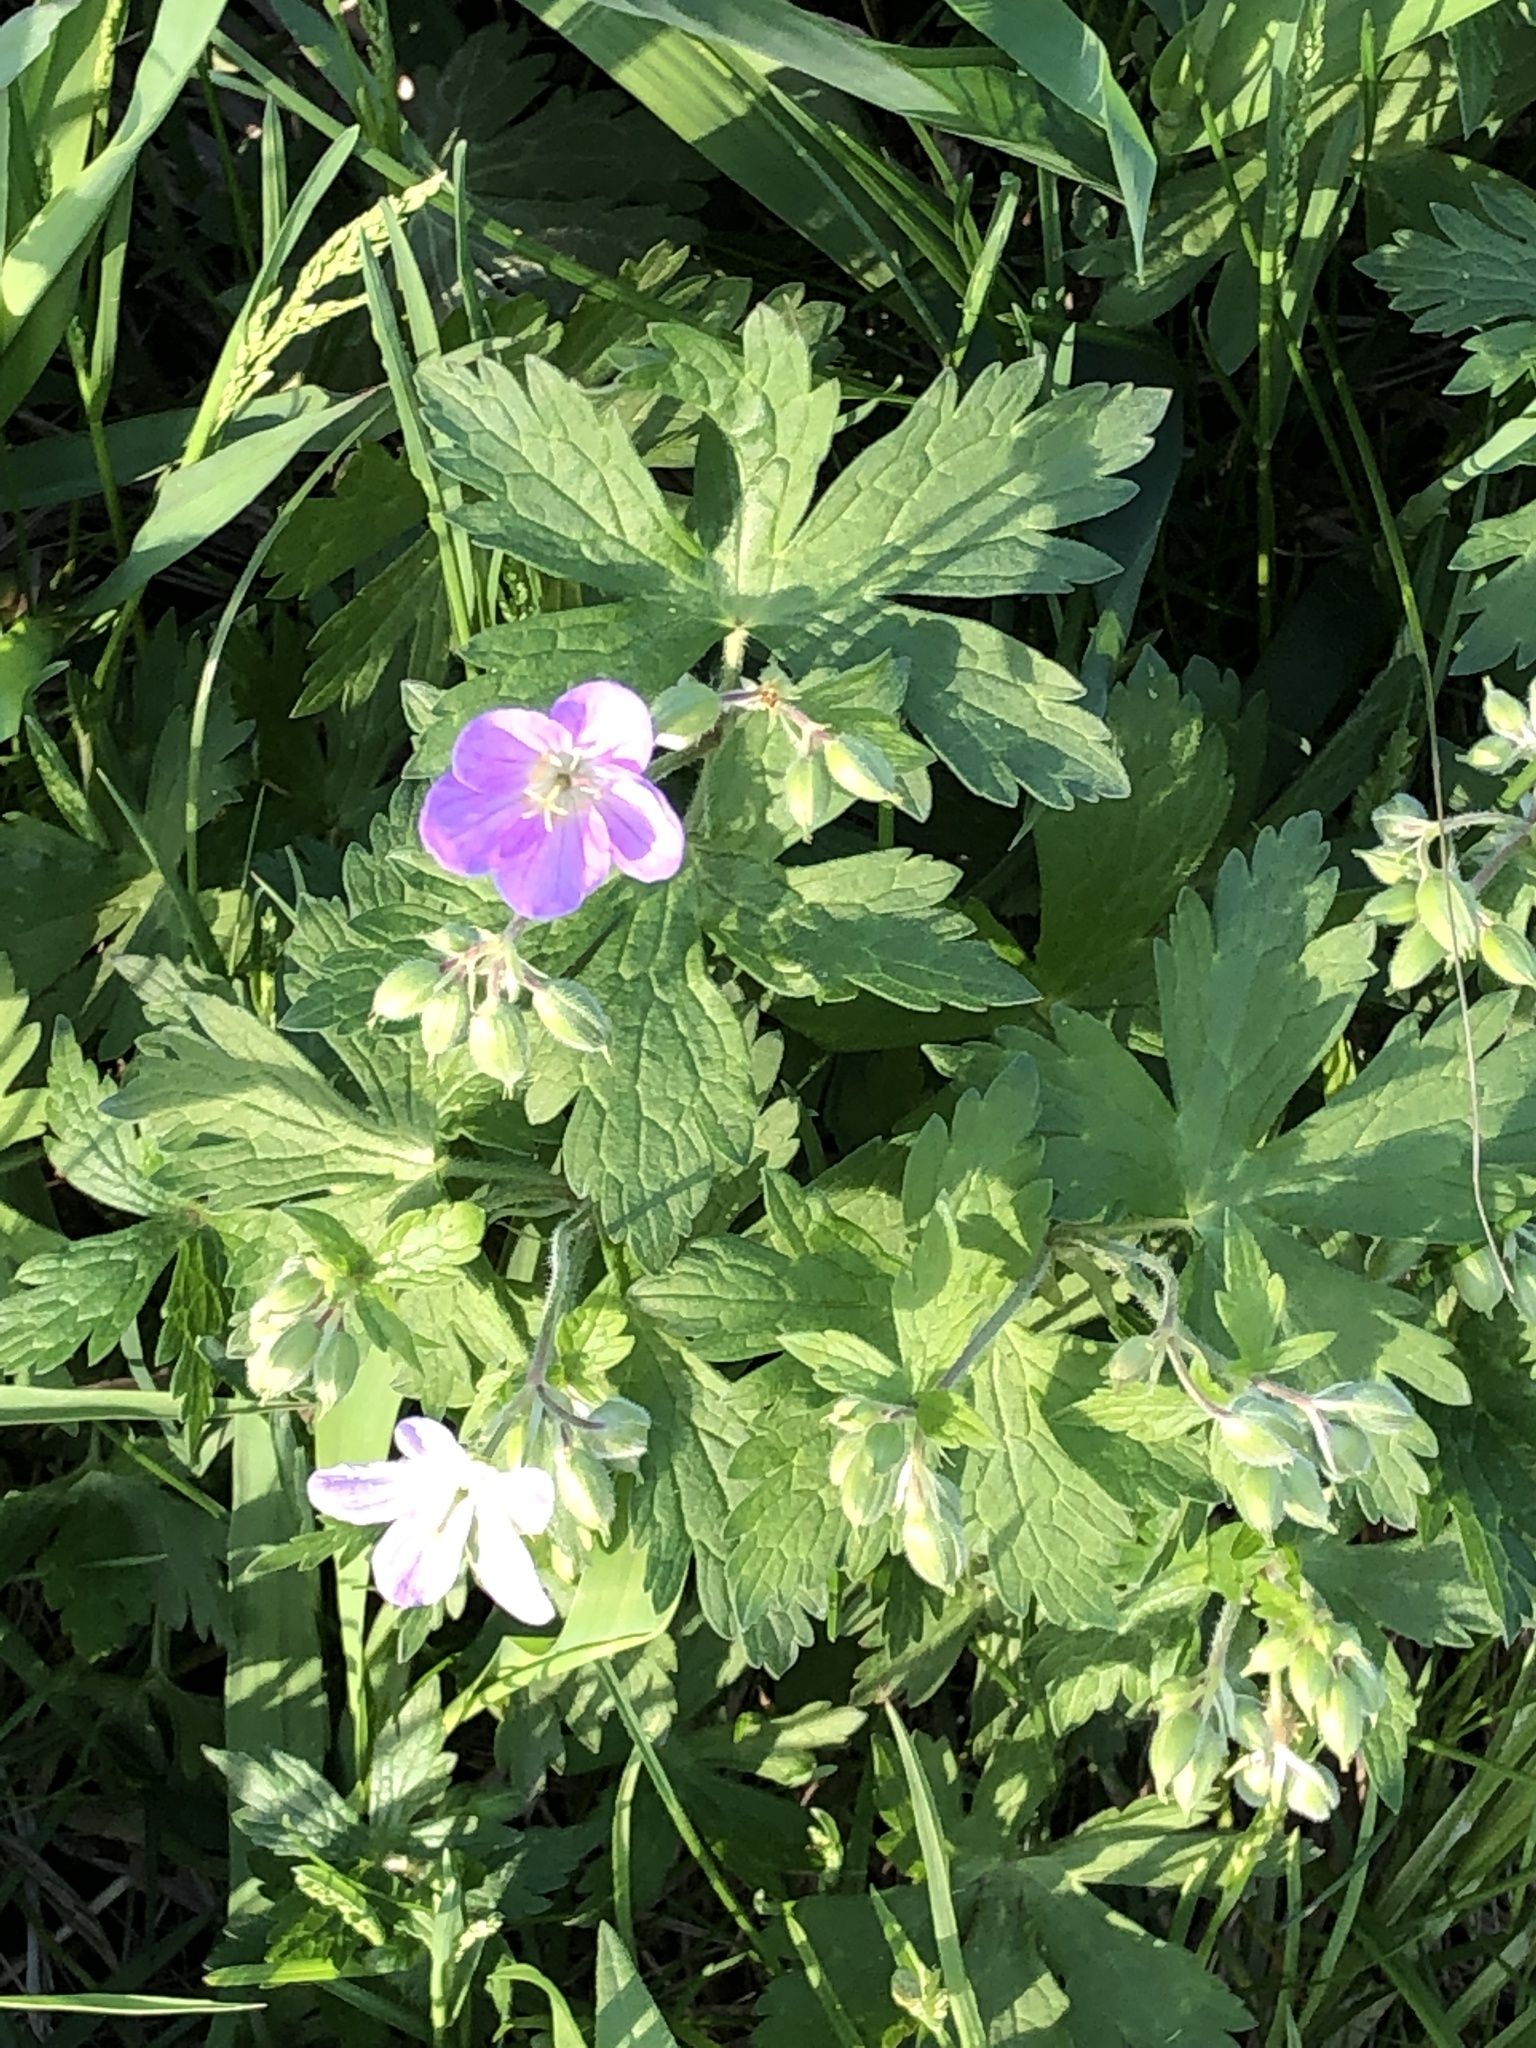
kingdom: Plantae
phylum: Tracheophyta
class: Magnoliopsida
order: Geraniales
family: Geraniaceae
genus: Geranium
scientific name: Geranium maculatum
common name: Spotted geranium
